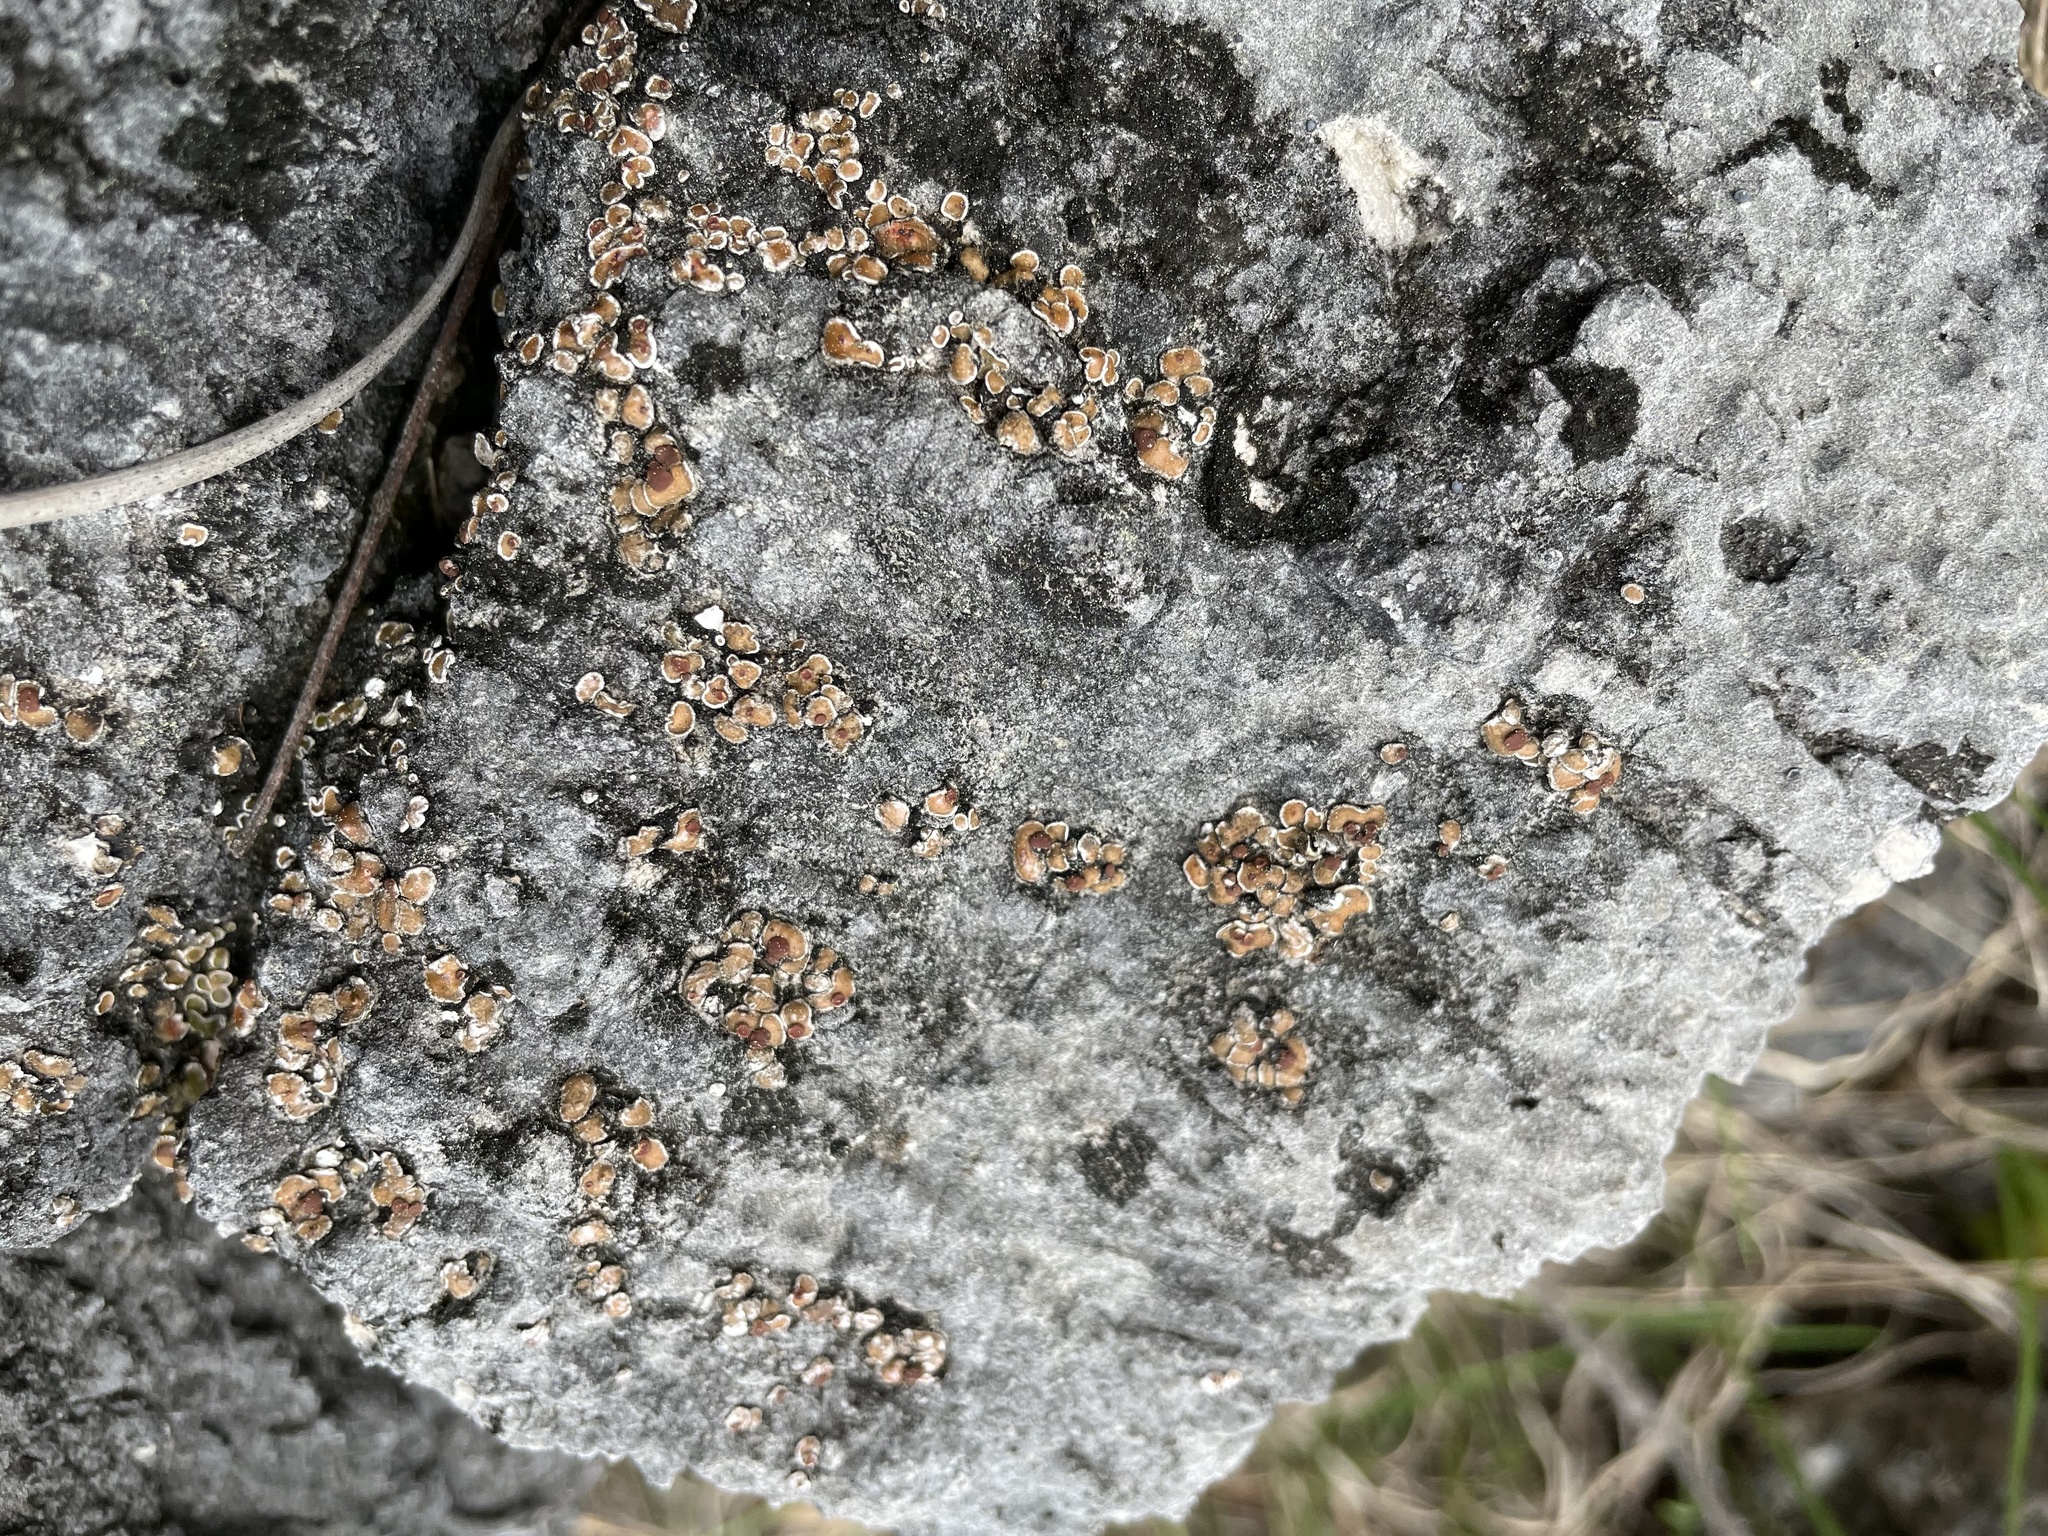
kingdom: Fungi
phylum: Ascomycota
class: Lecanoromycetes
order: Lecanorales
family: Psoraceae
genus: Psora
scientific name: Psora pseudorussellii
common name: Bordered scale lichen
